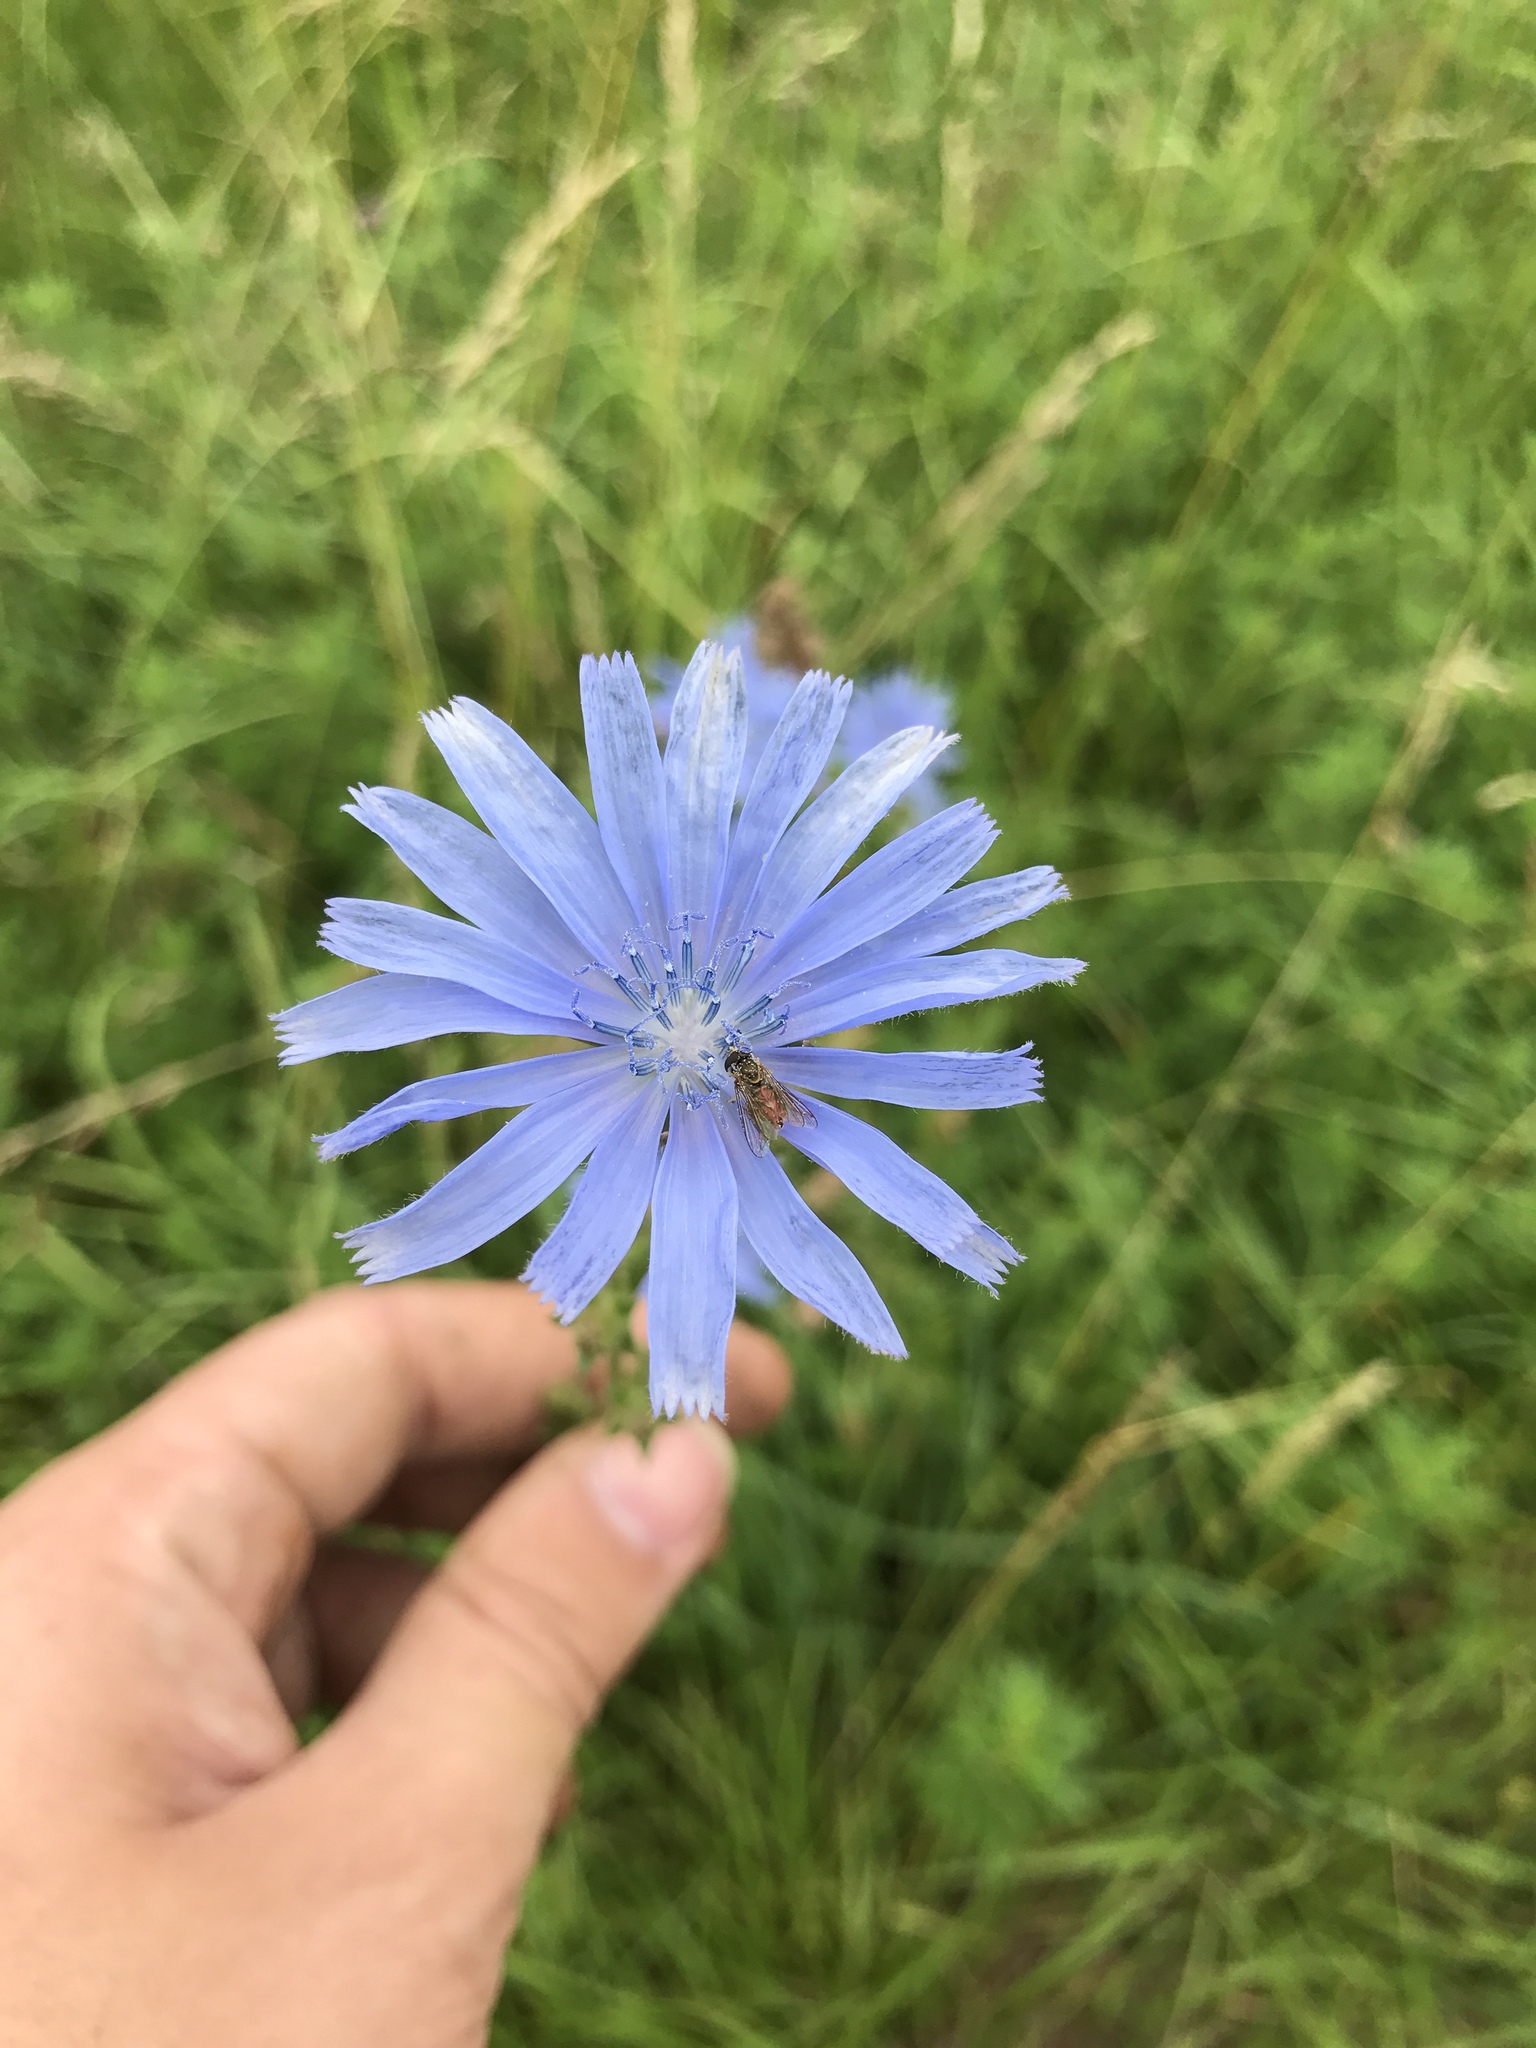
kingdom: Plantae
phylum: Tracheophyta
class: Magnoliopsida
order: Asterales
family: Asteraceae
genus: Cichorium
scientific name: Cichorium intybus
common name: Chicory
